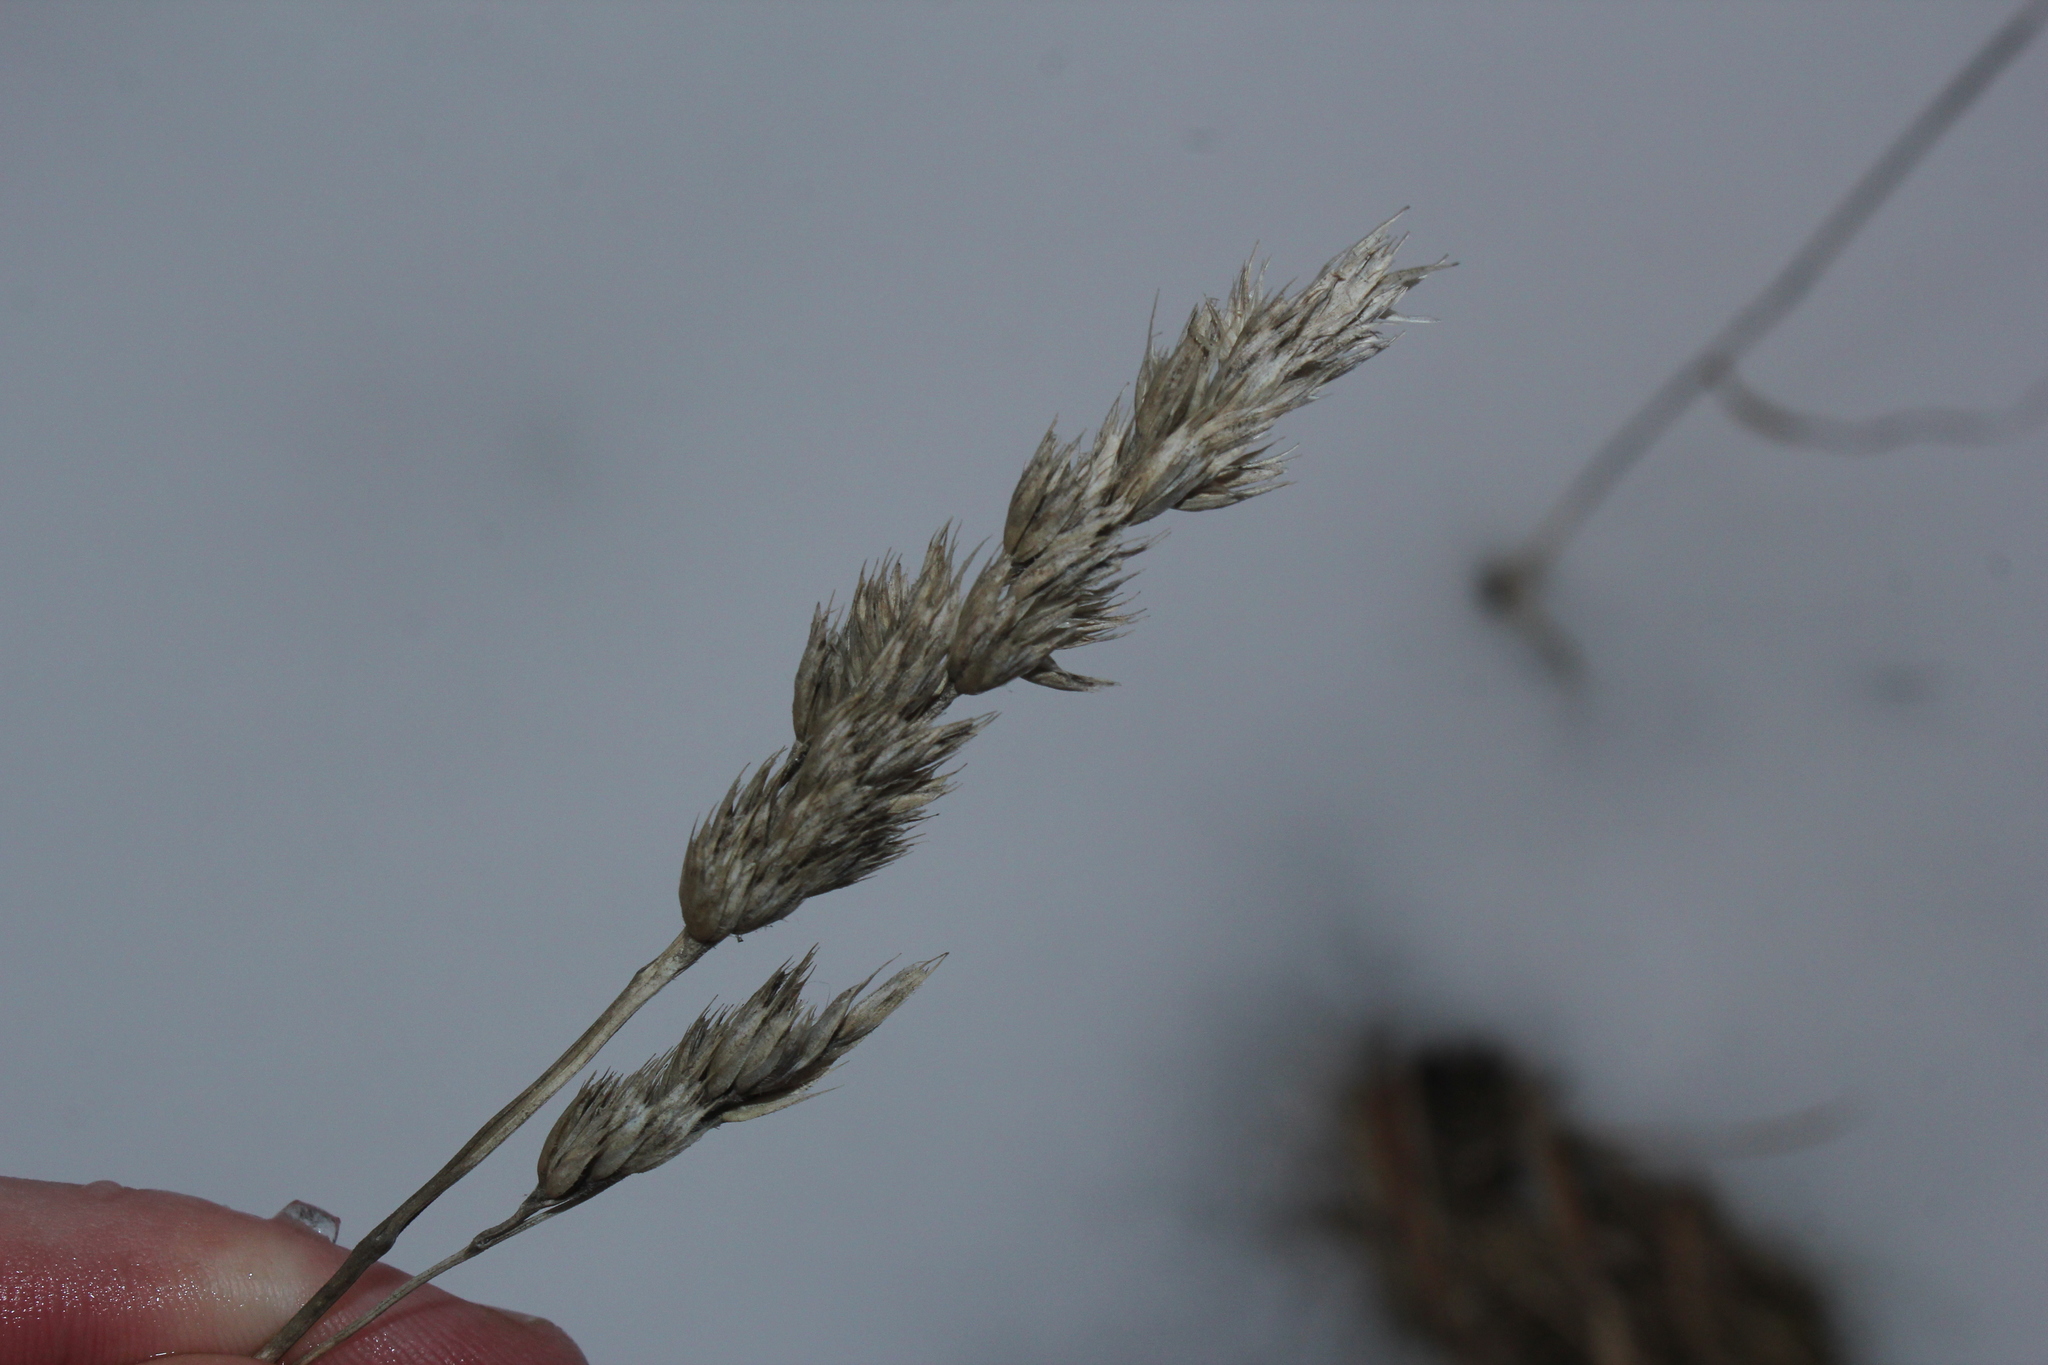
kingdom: Plantae
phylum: Tracheophyta
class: Liliopsida
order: Poales
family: Poaceae
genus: Dactylis
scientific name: Dactylis glomerata
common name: Orchardgrass
